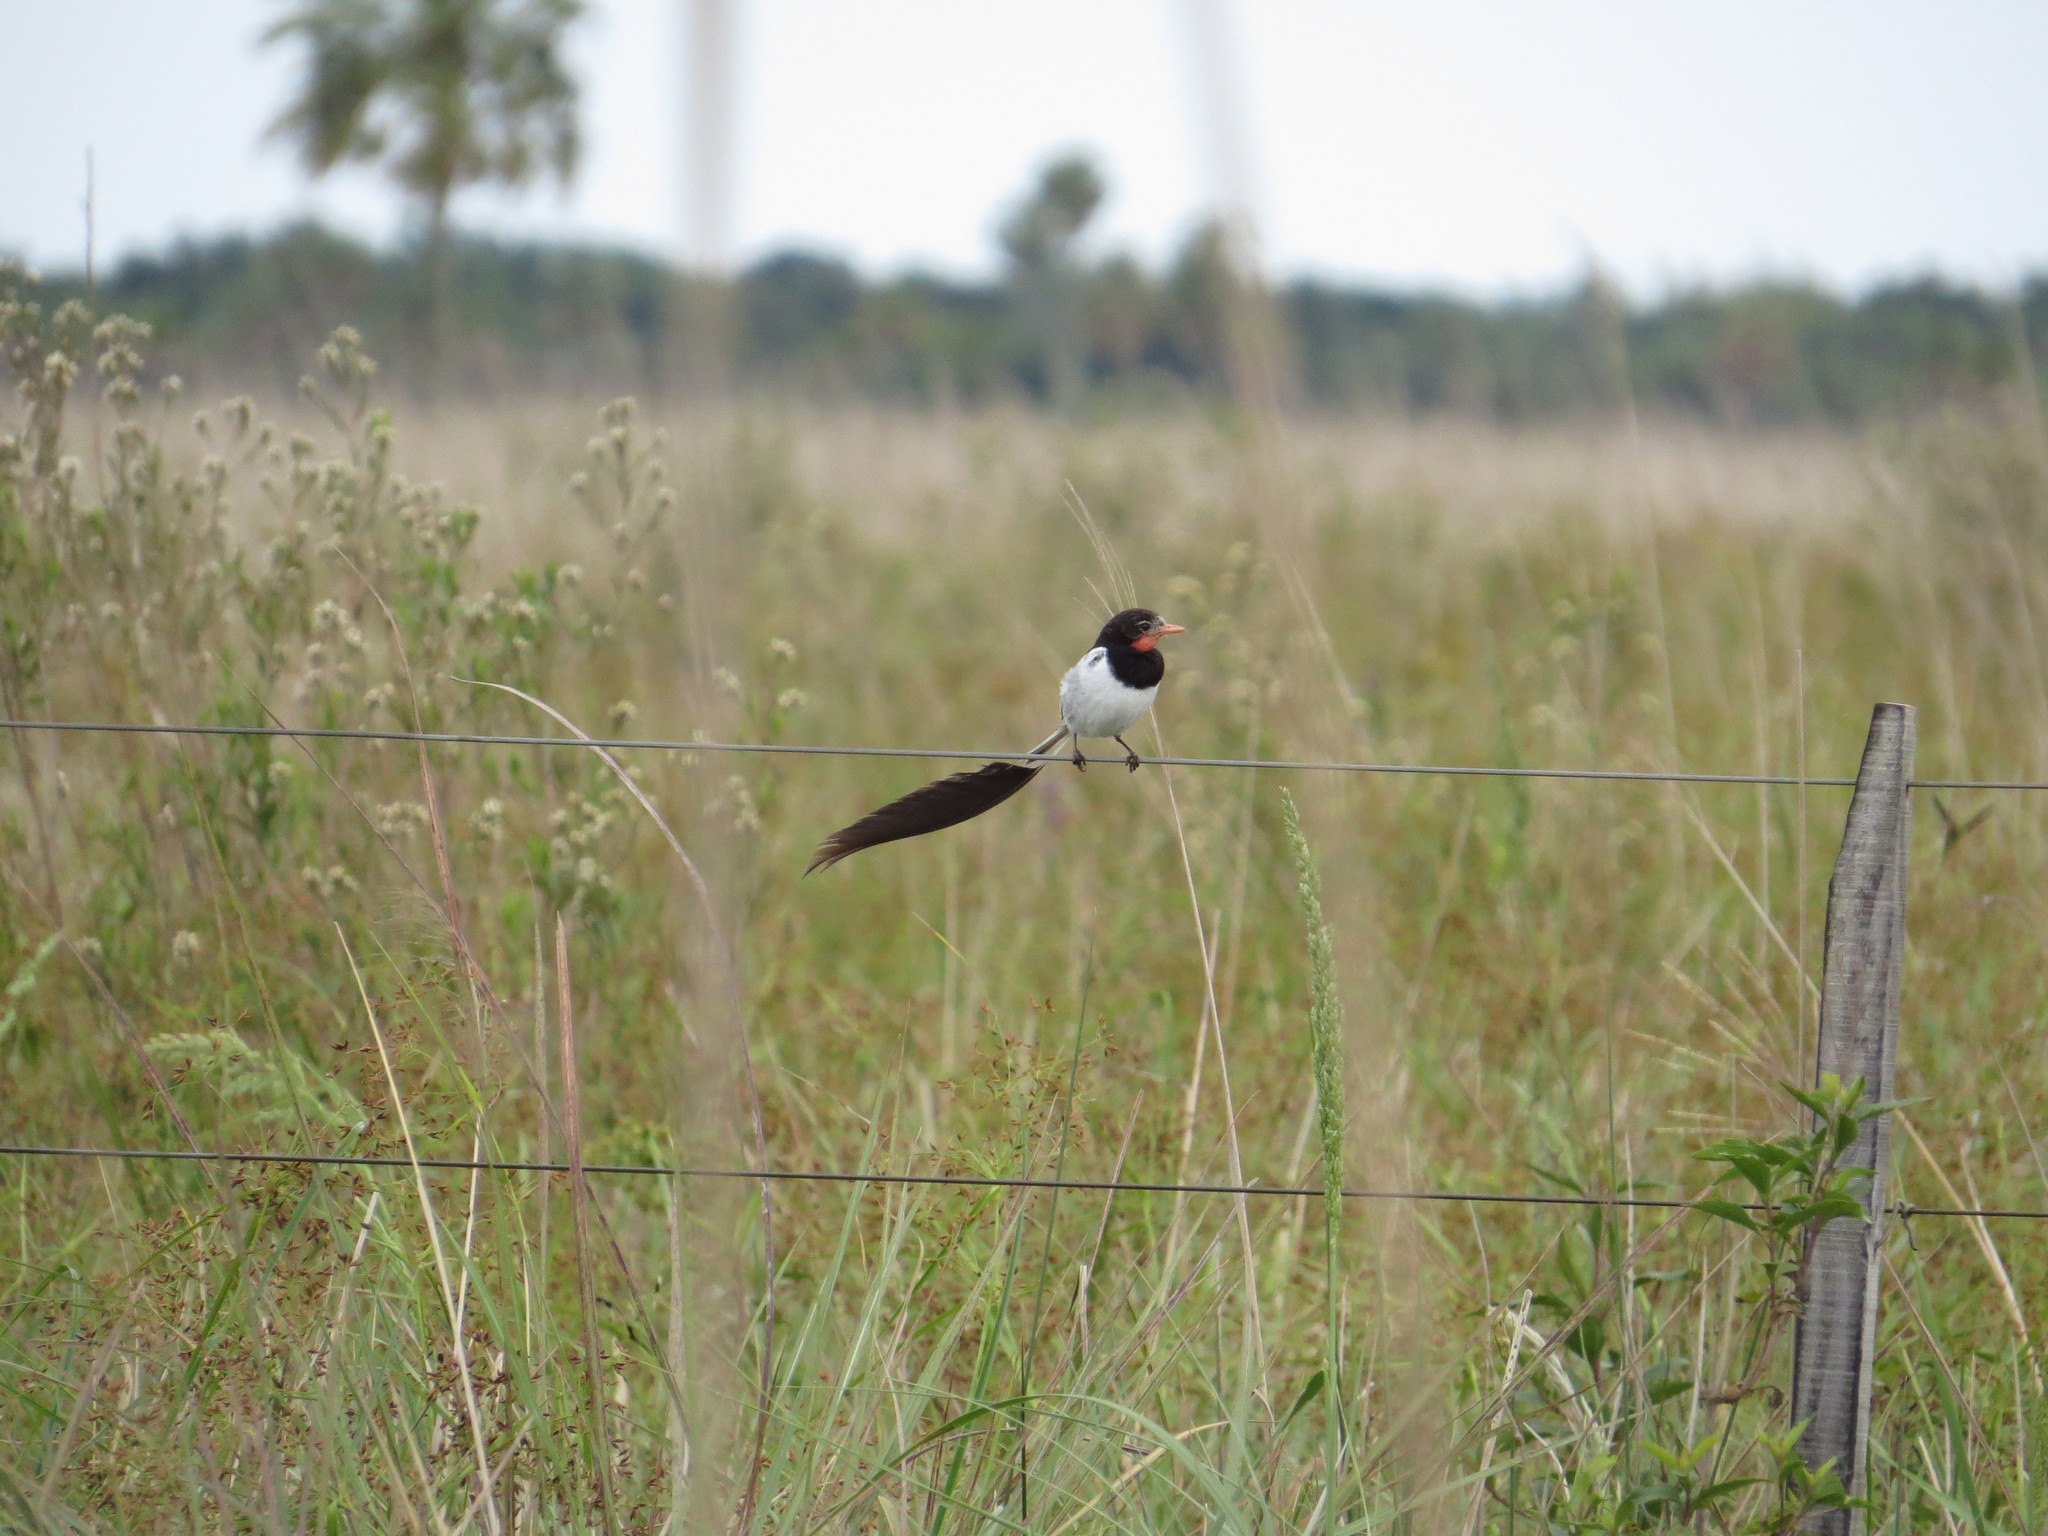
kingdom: Animalia
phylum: Chordata
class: Aves
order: Passeriformes
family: Tyrannidae
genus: Alectrurus
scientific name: Alectrurus risora
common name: Strange-tailed tyrant
